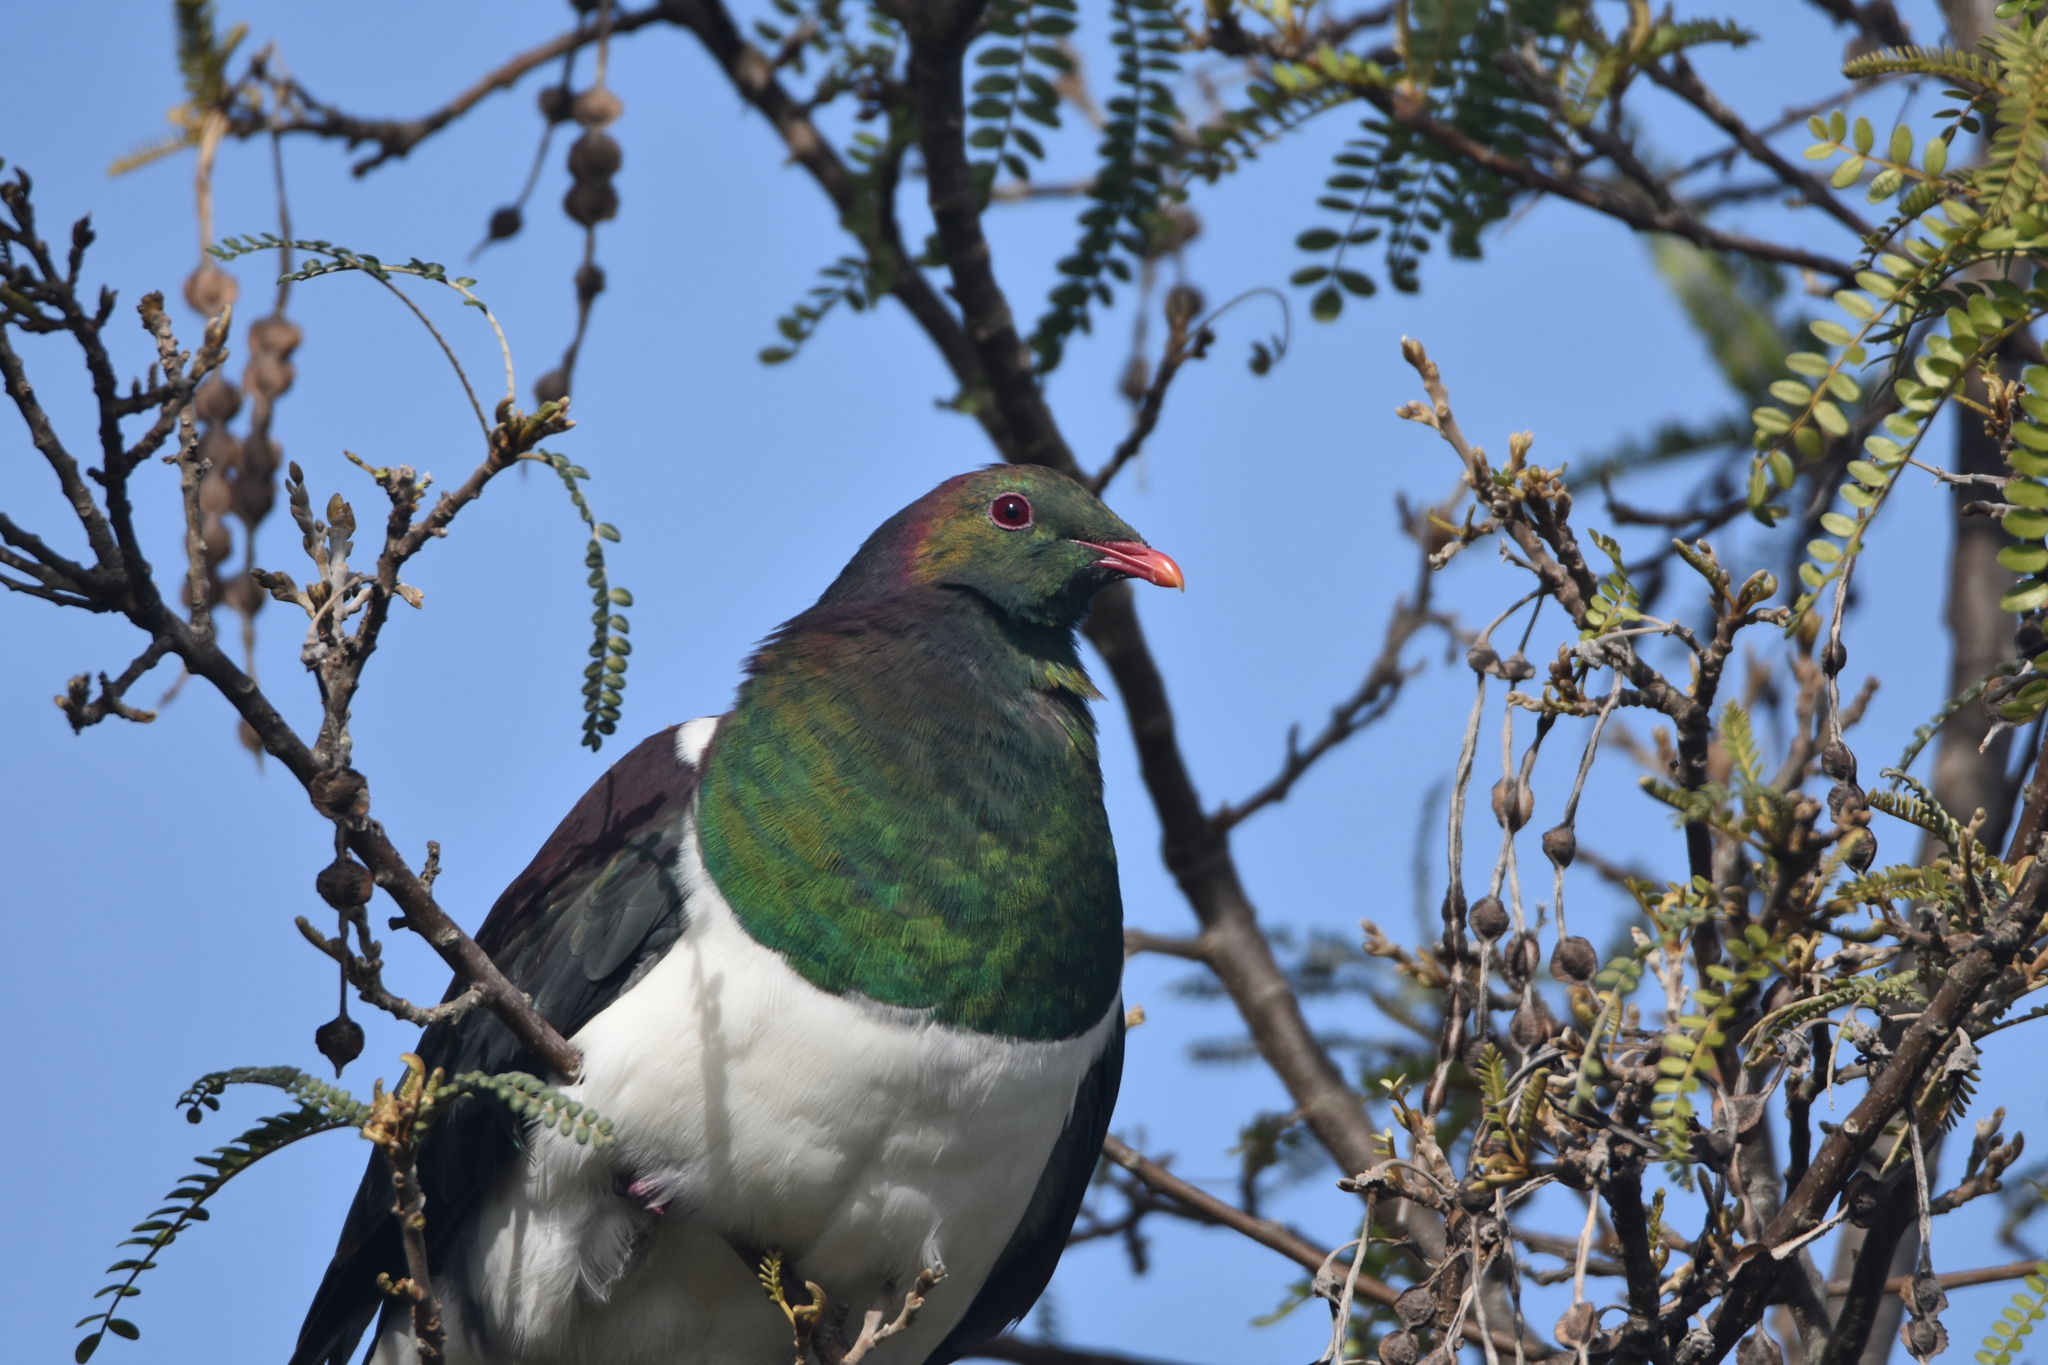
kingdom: Animalia
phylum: Chordata
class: Aves
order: Columbiformes
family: Columbidae
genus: Hemiphaga
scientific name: Hemiphaga novaeseelandiae
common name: New zealand pigeon
